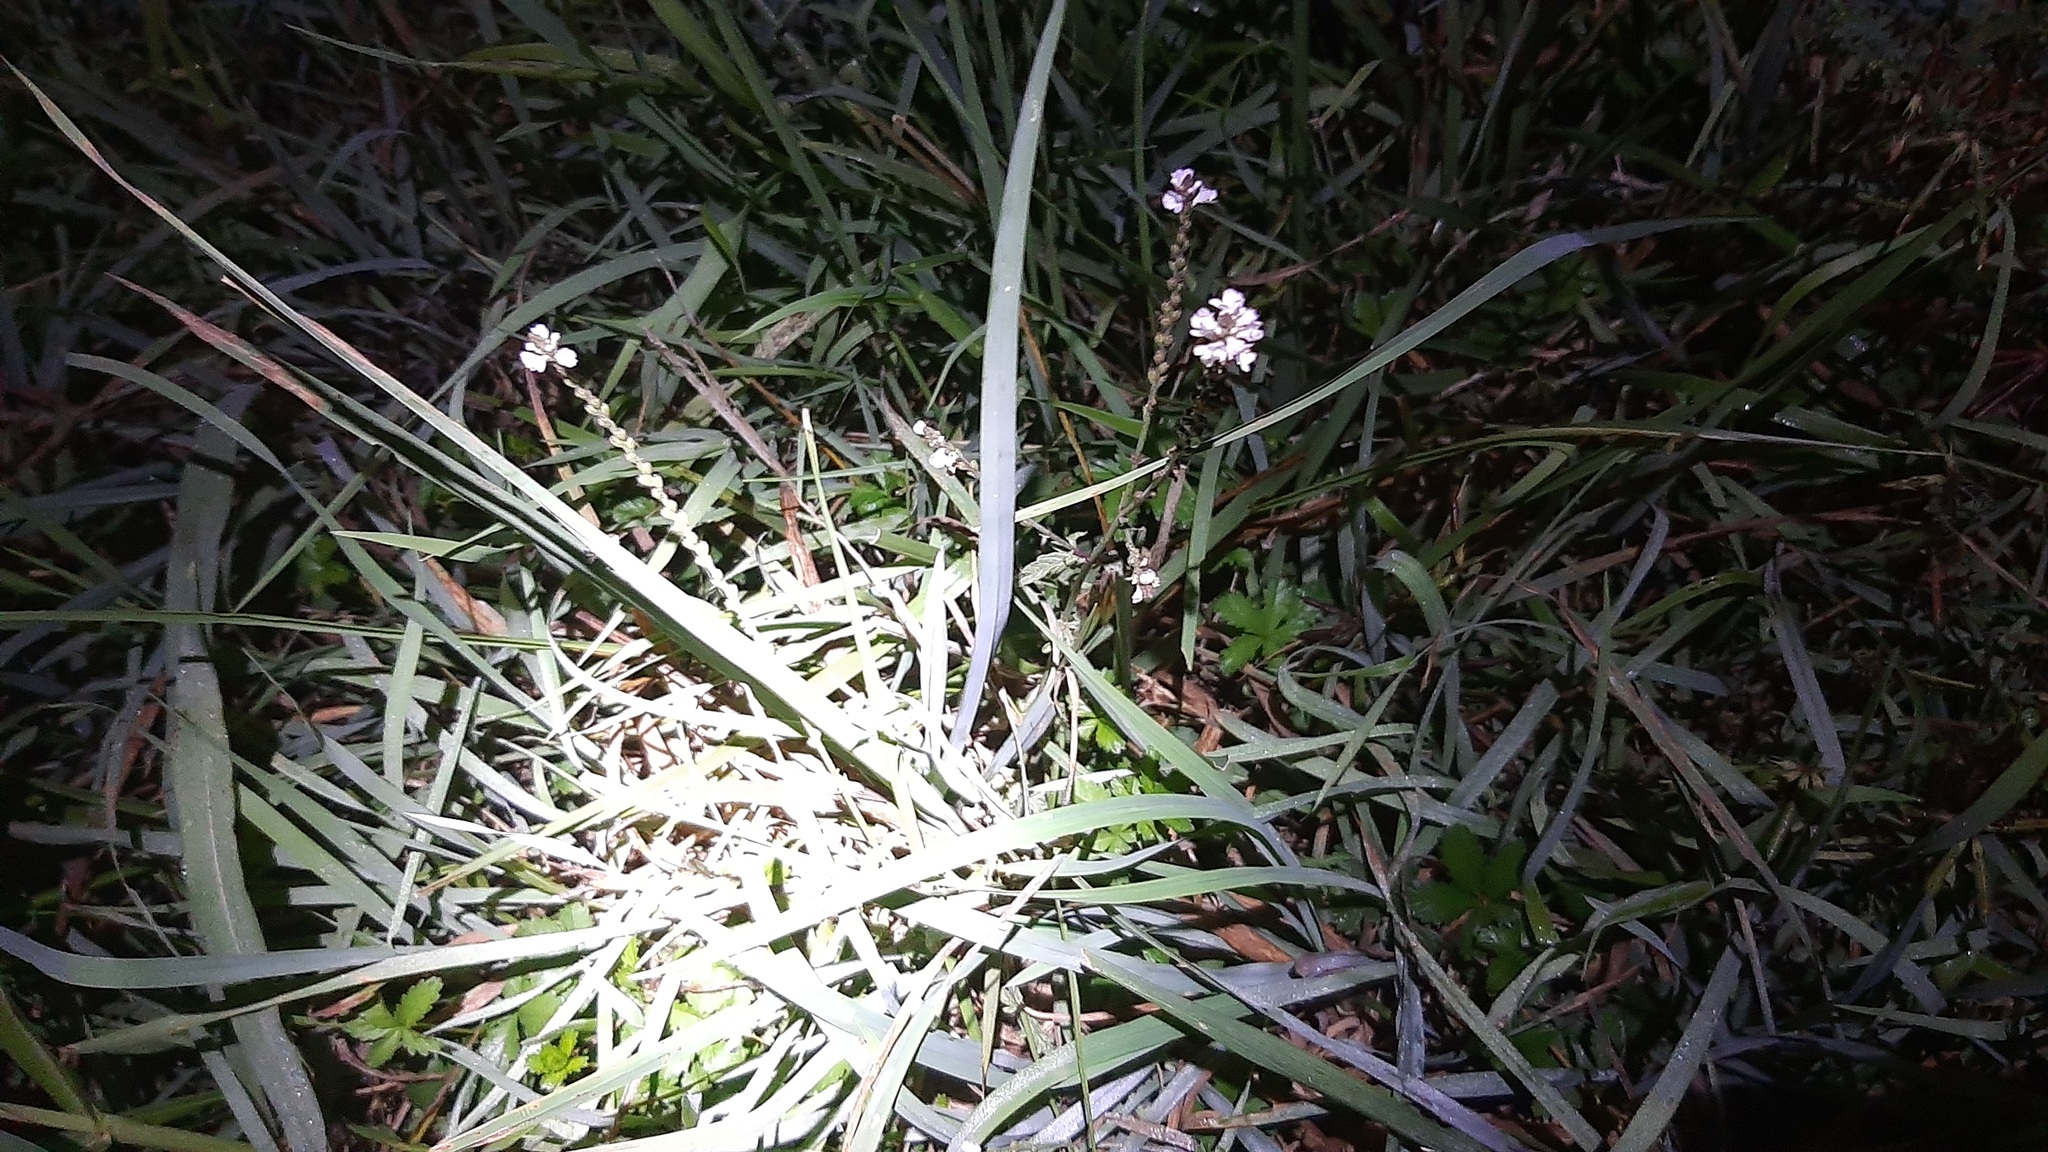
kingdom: Plantae
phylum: Tracheophyta
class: Magnoliopsida
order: Lamiales
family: Verbenaceae
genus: Verbena
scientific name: Verbena officinalis
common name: Vervain
